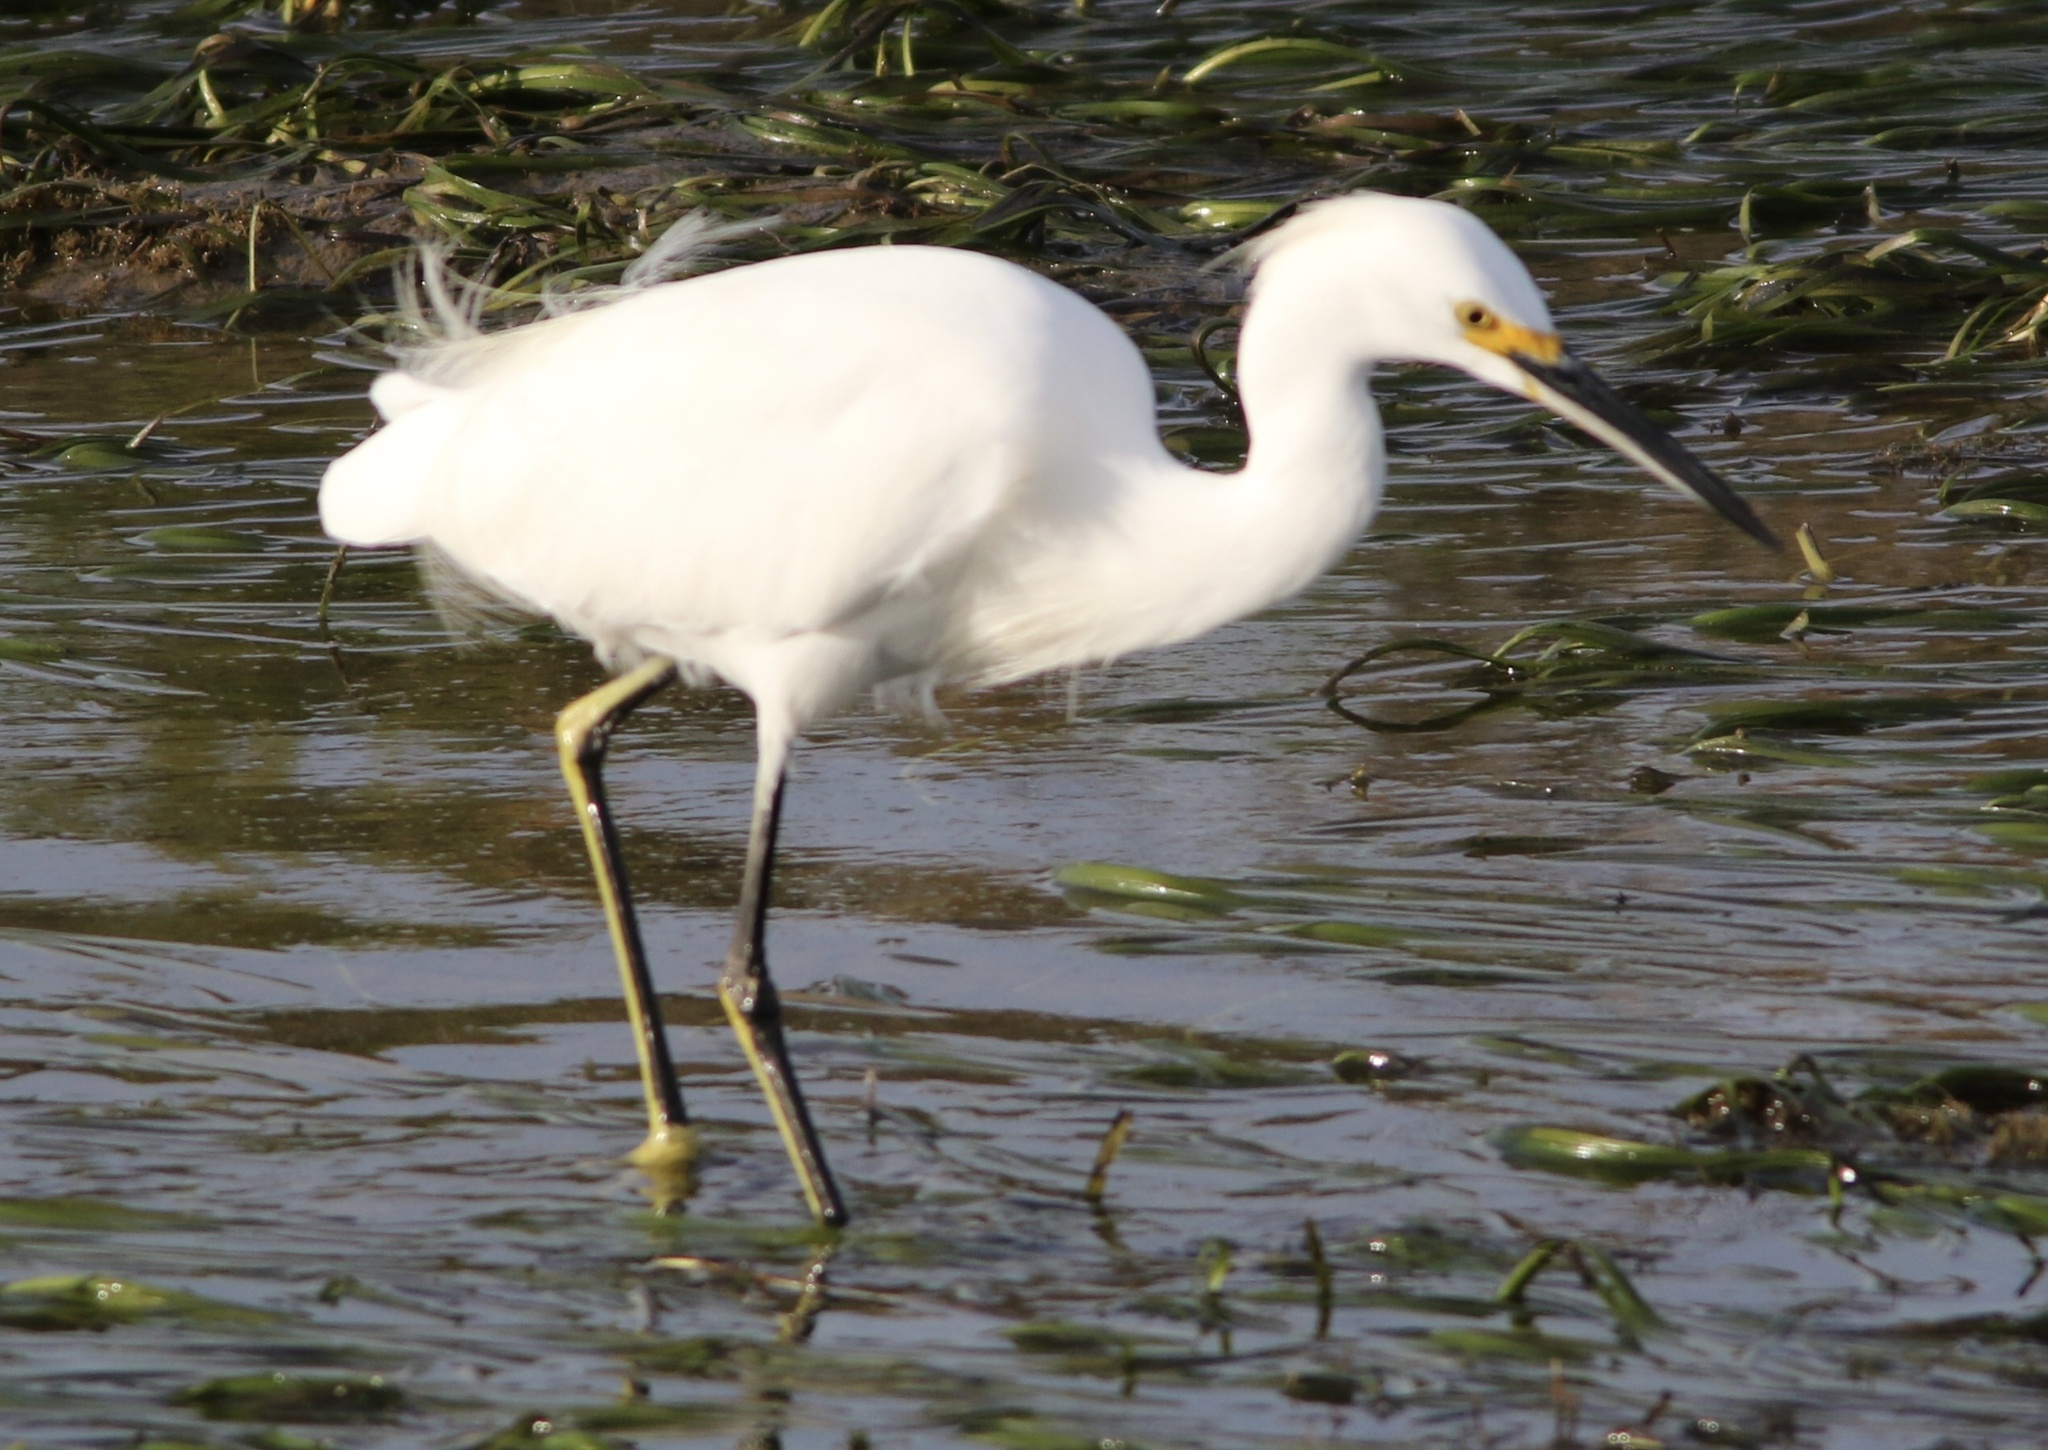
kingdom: Animalia
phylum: Chordata
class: Aves
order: Pelecaniformes
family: Ardeidae
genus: Egretta
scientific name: Egretta thula
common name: Snowy egret
